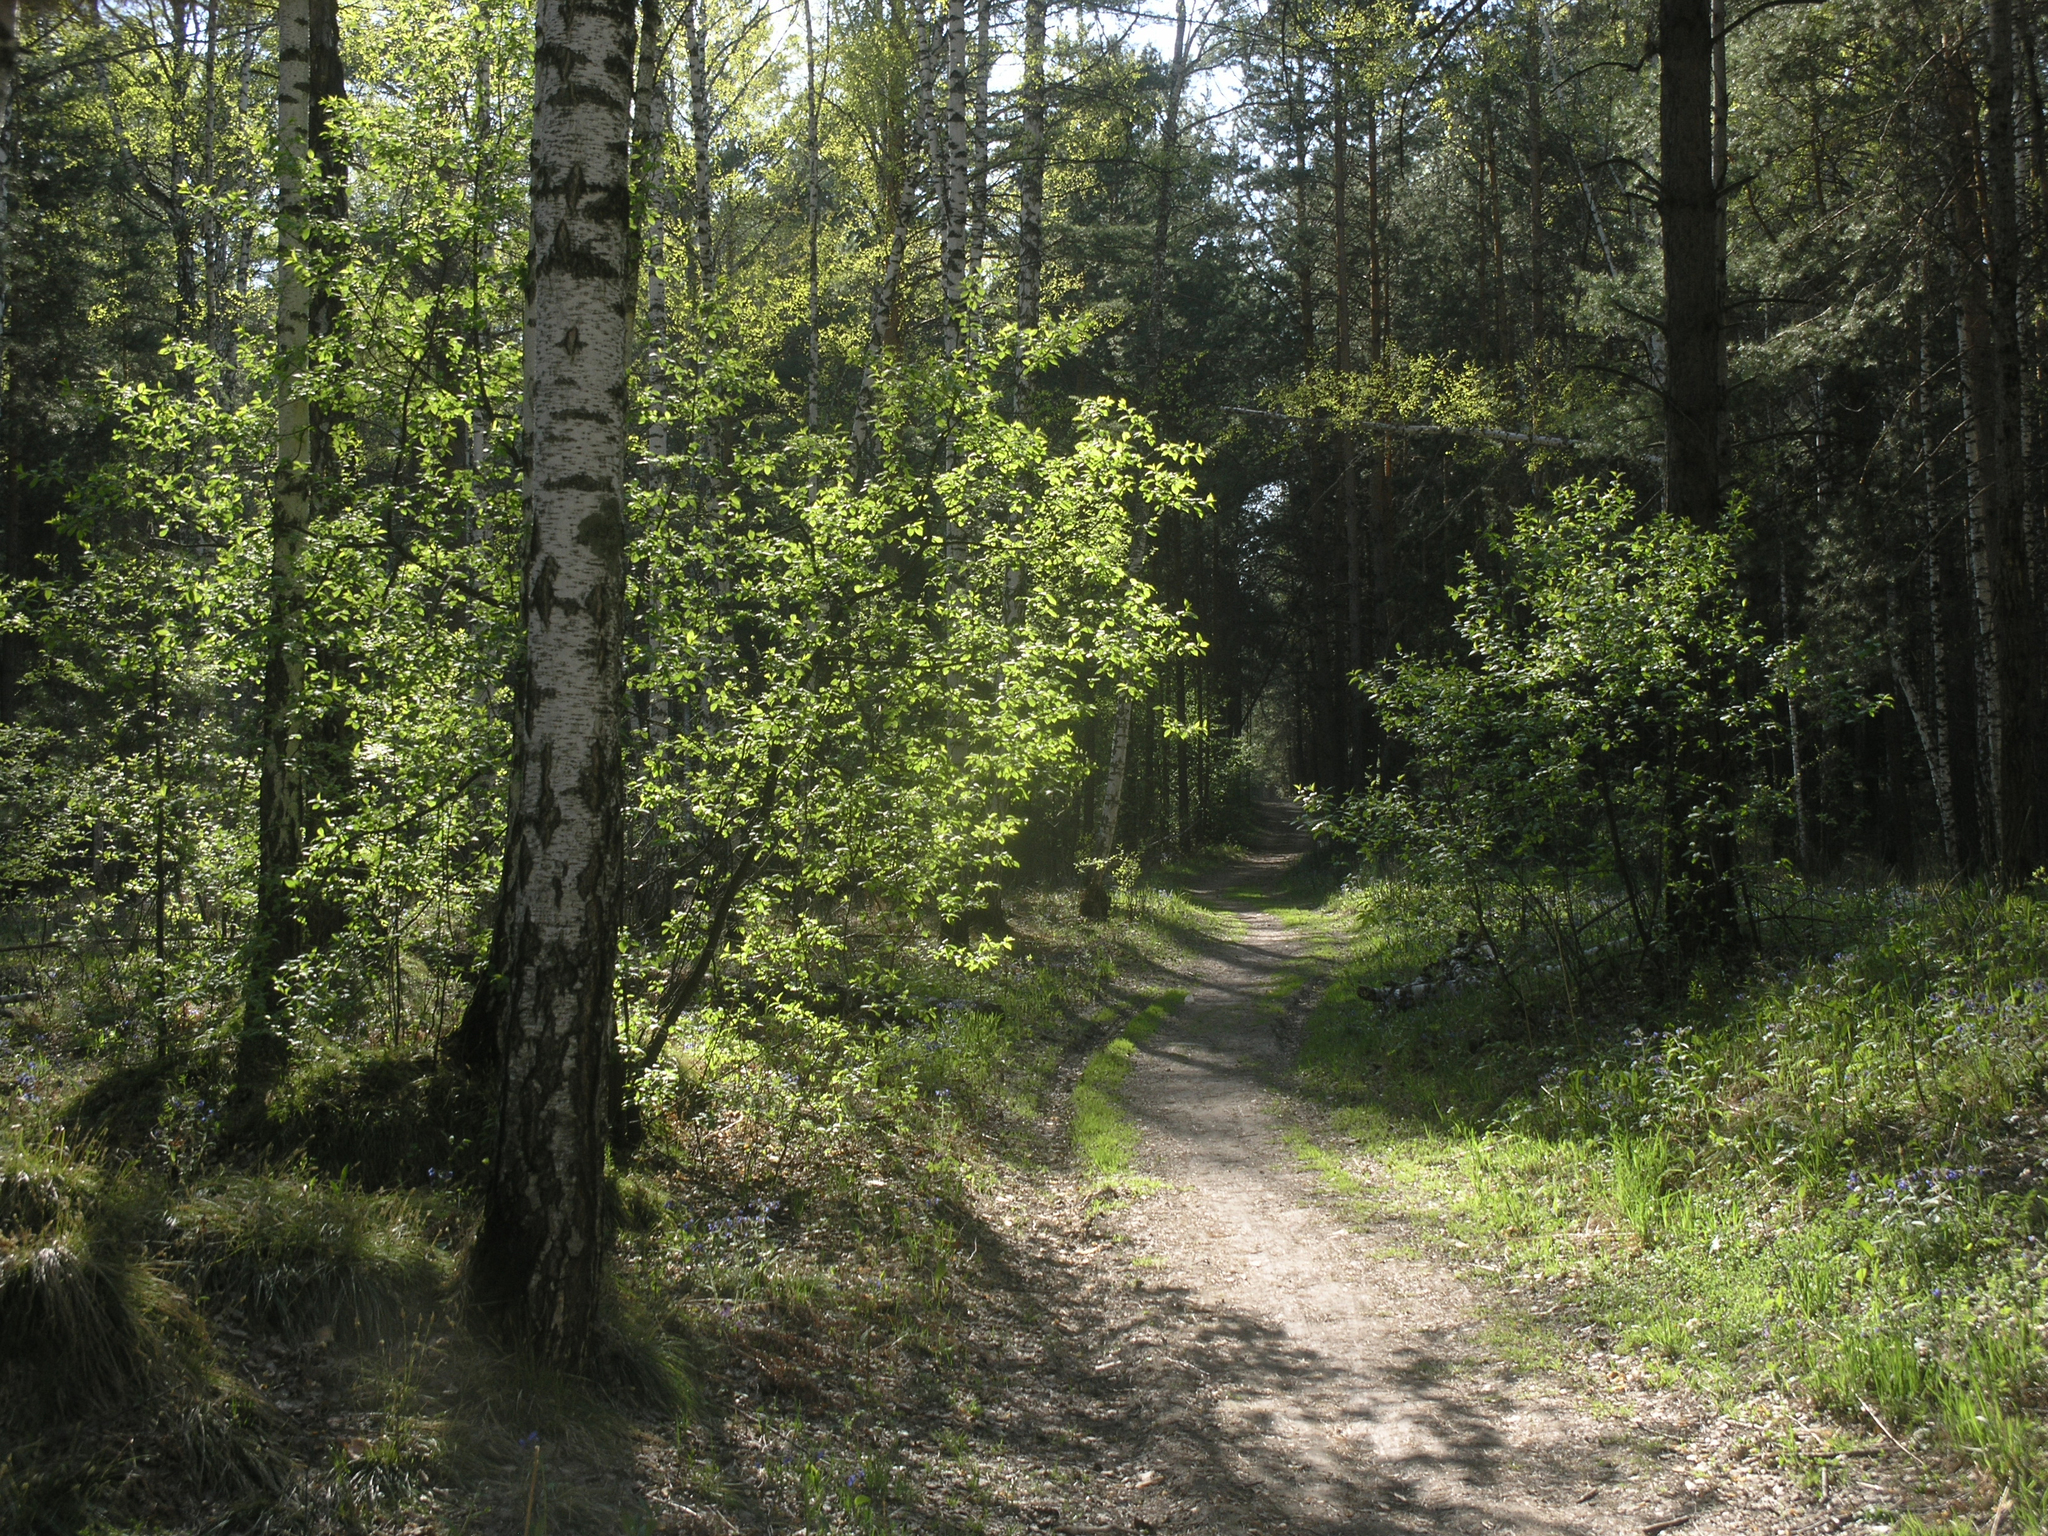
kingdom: Plantae
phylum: Tracheophyta
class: Magnoliopsida
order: Fagales
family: Betulaceae
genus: Betula
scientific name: Betula pendula
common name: Silver birch
